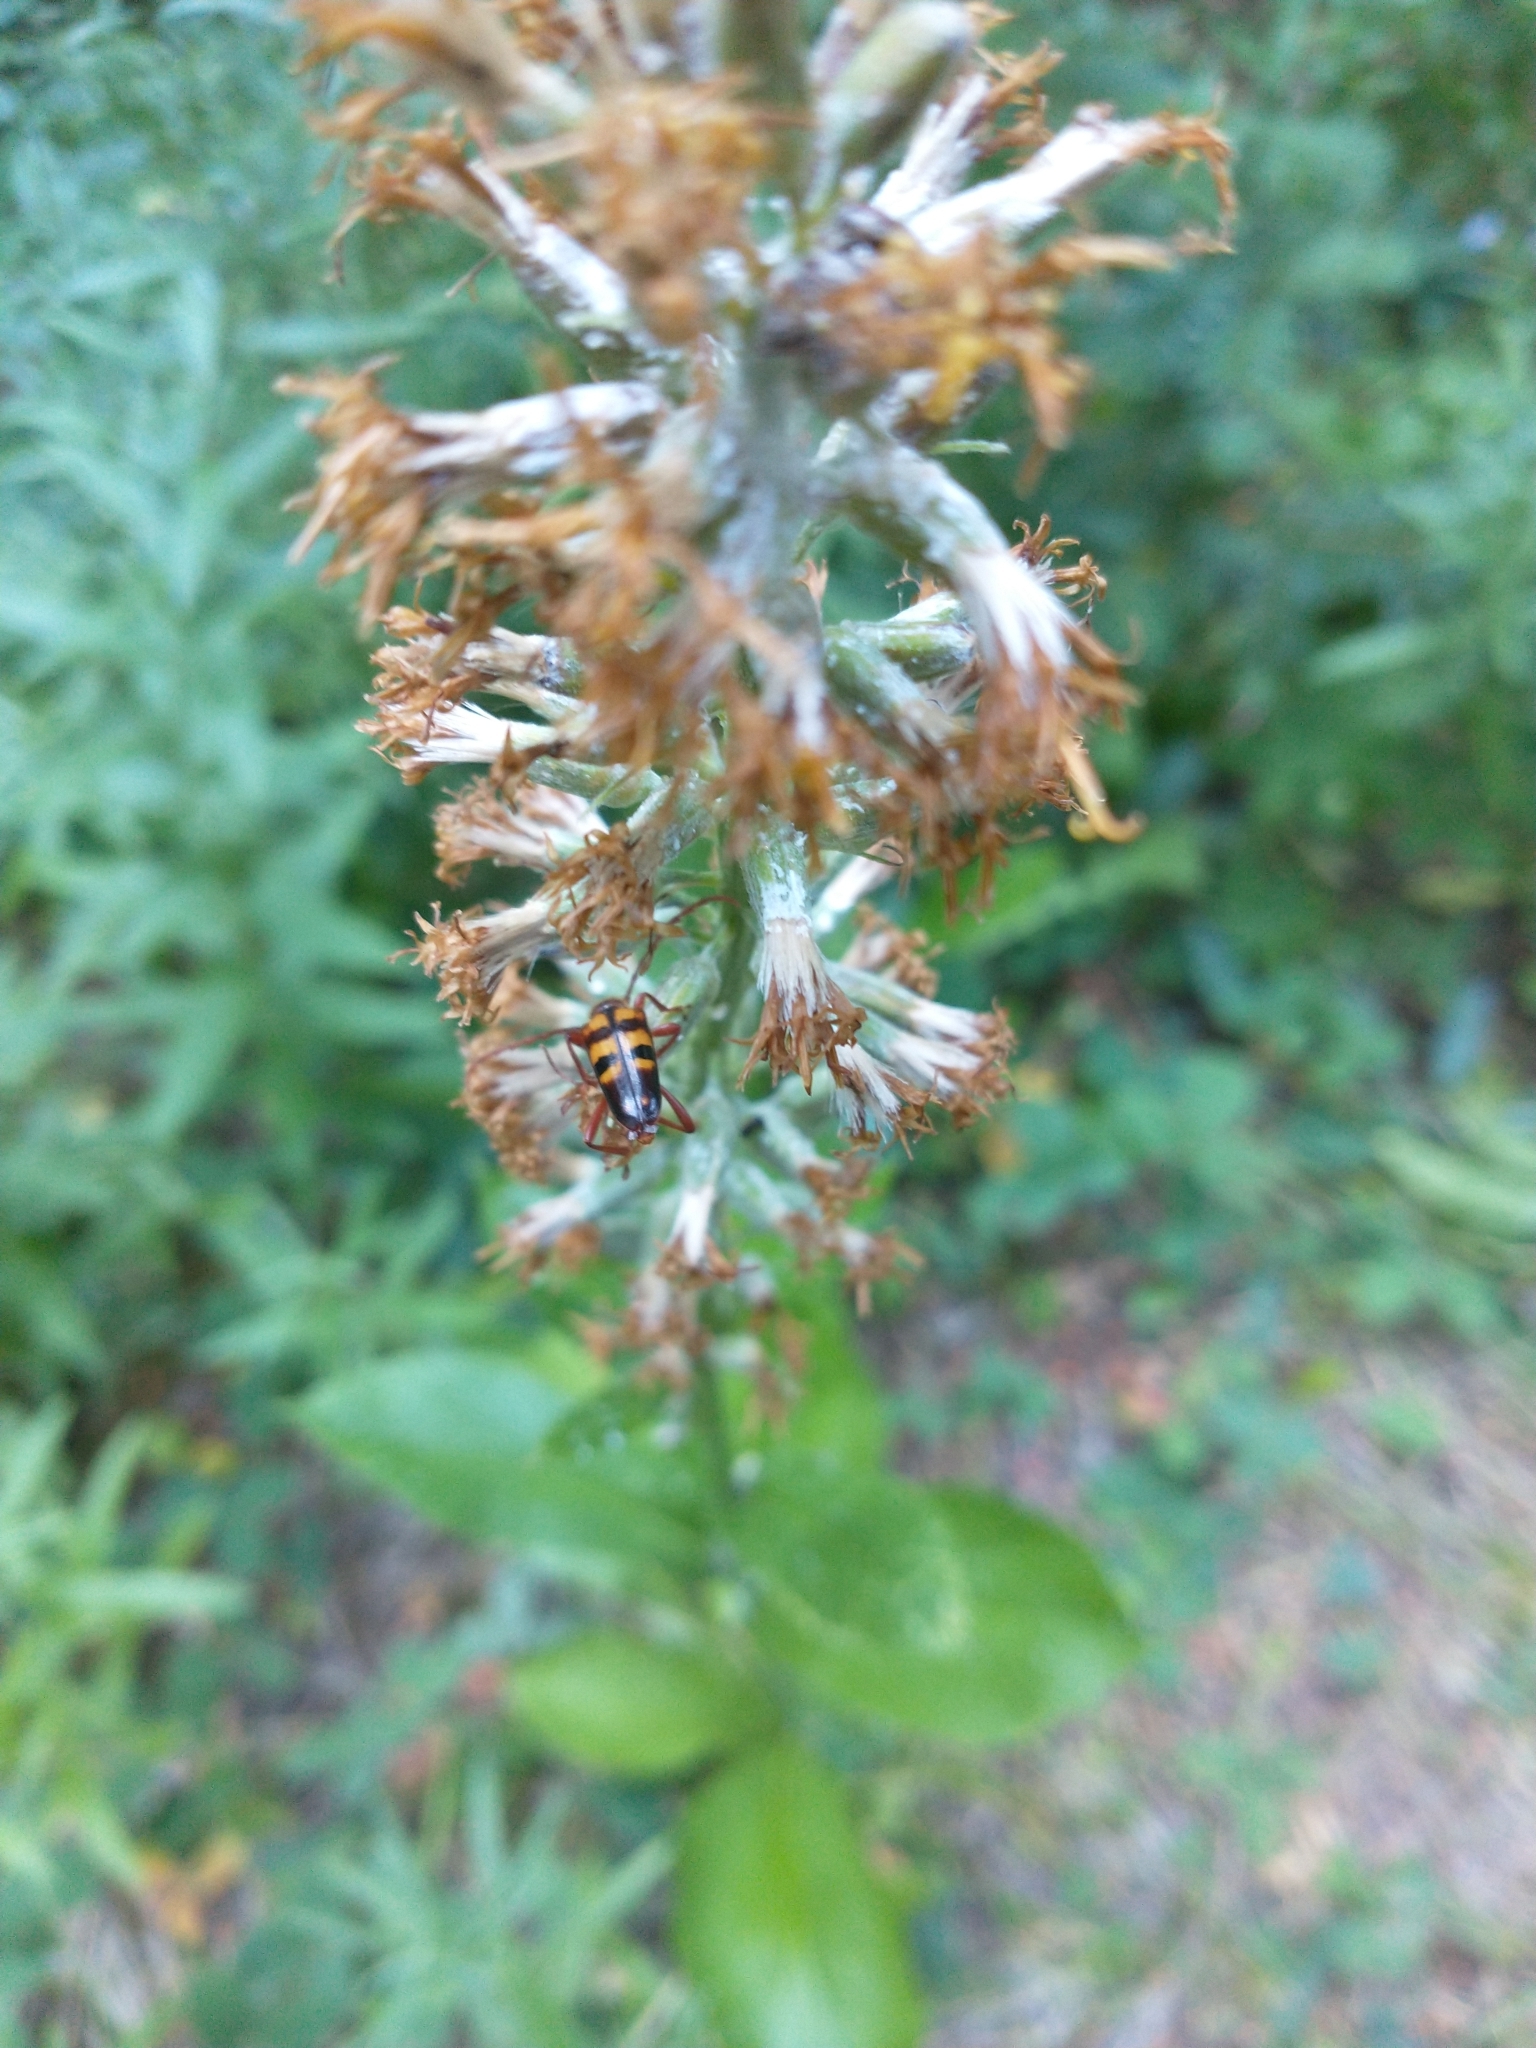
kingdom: Plantae
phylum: Tracheophyta
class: Magnoliopsida
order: Asterales
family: Asteraceae
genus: Rainiera
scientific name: Rainiera stricta
